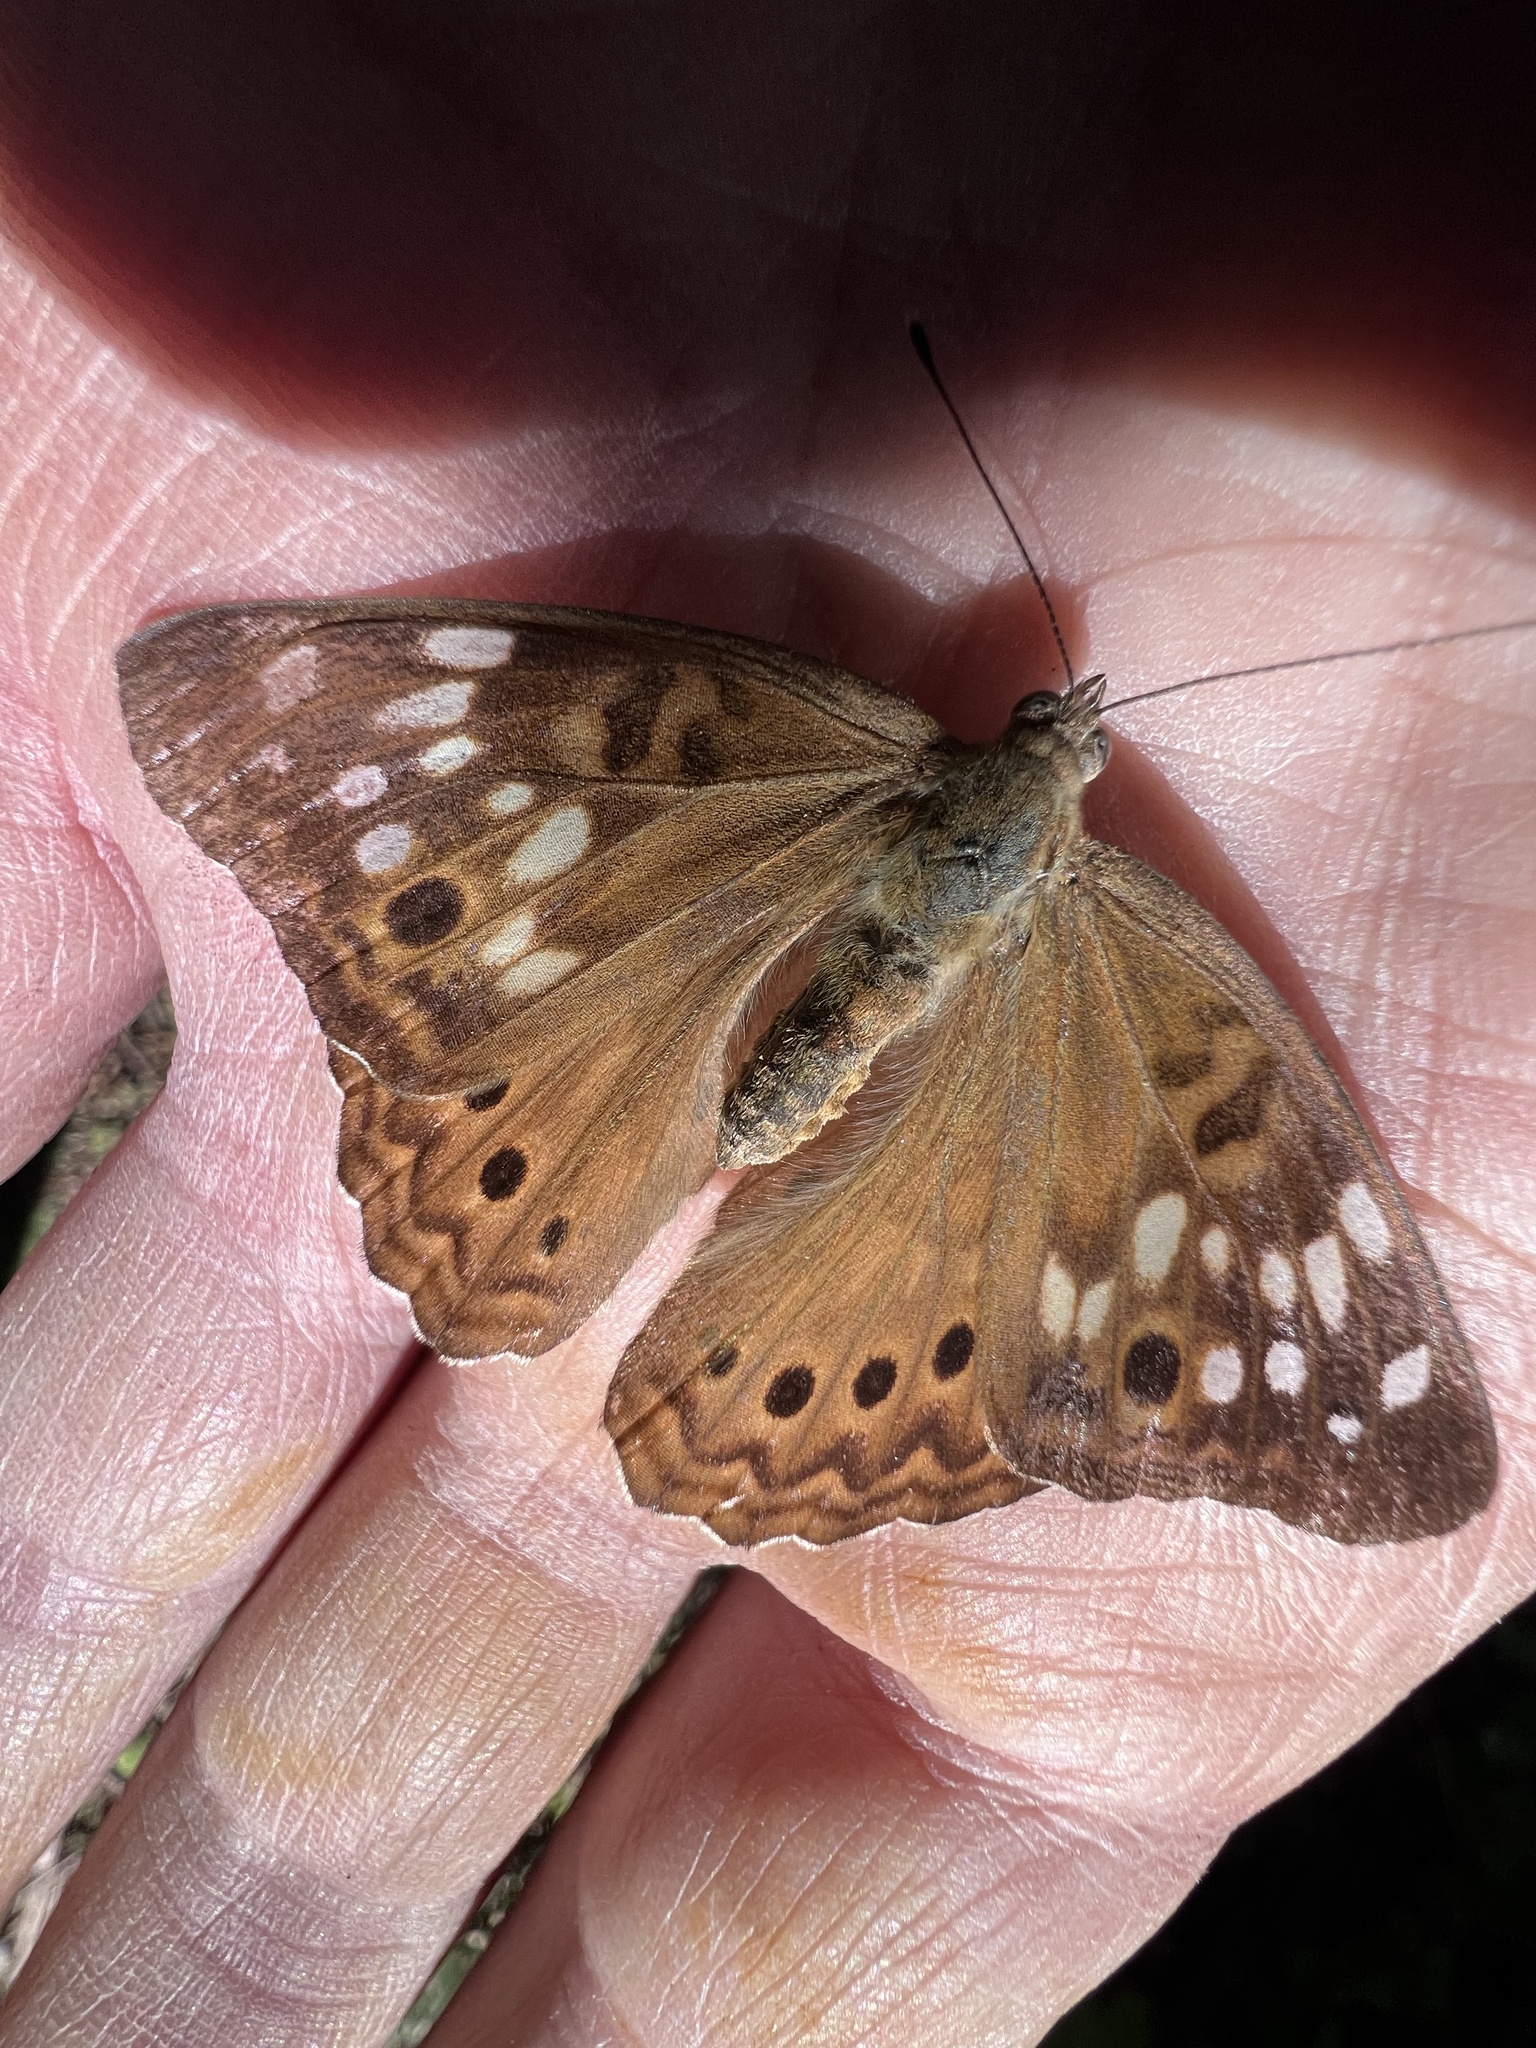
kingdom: Animalia
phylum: Arthropoda
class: Insecta
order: Lepidoptera
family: Nymphalidae
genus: Asterocampa
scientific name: Asterocampa celtis
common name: Hackberry emperor
